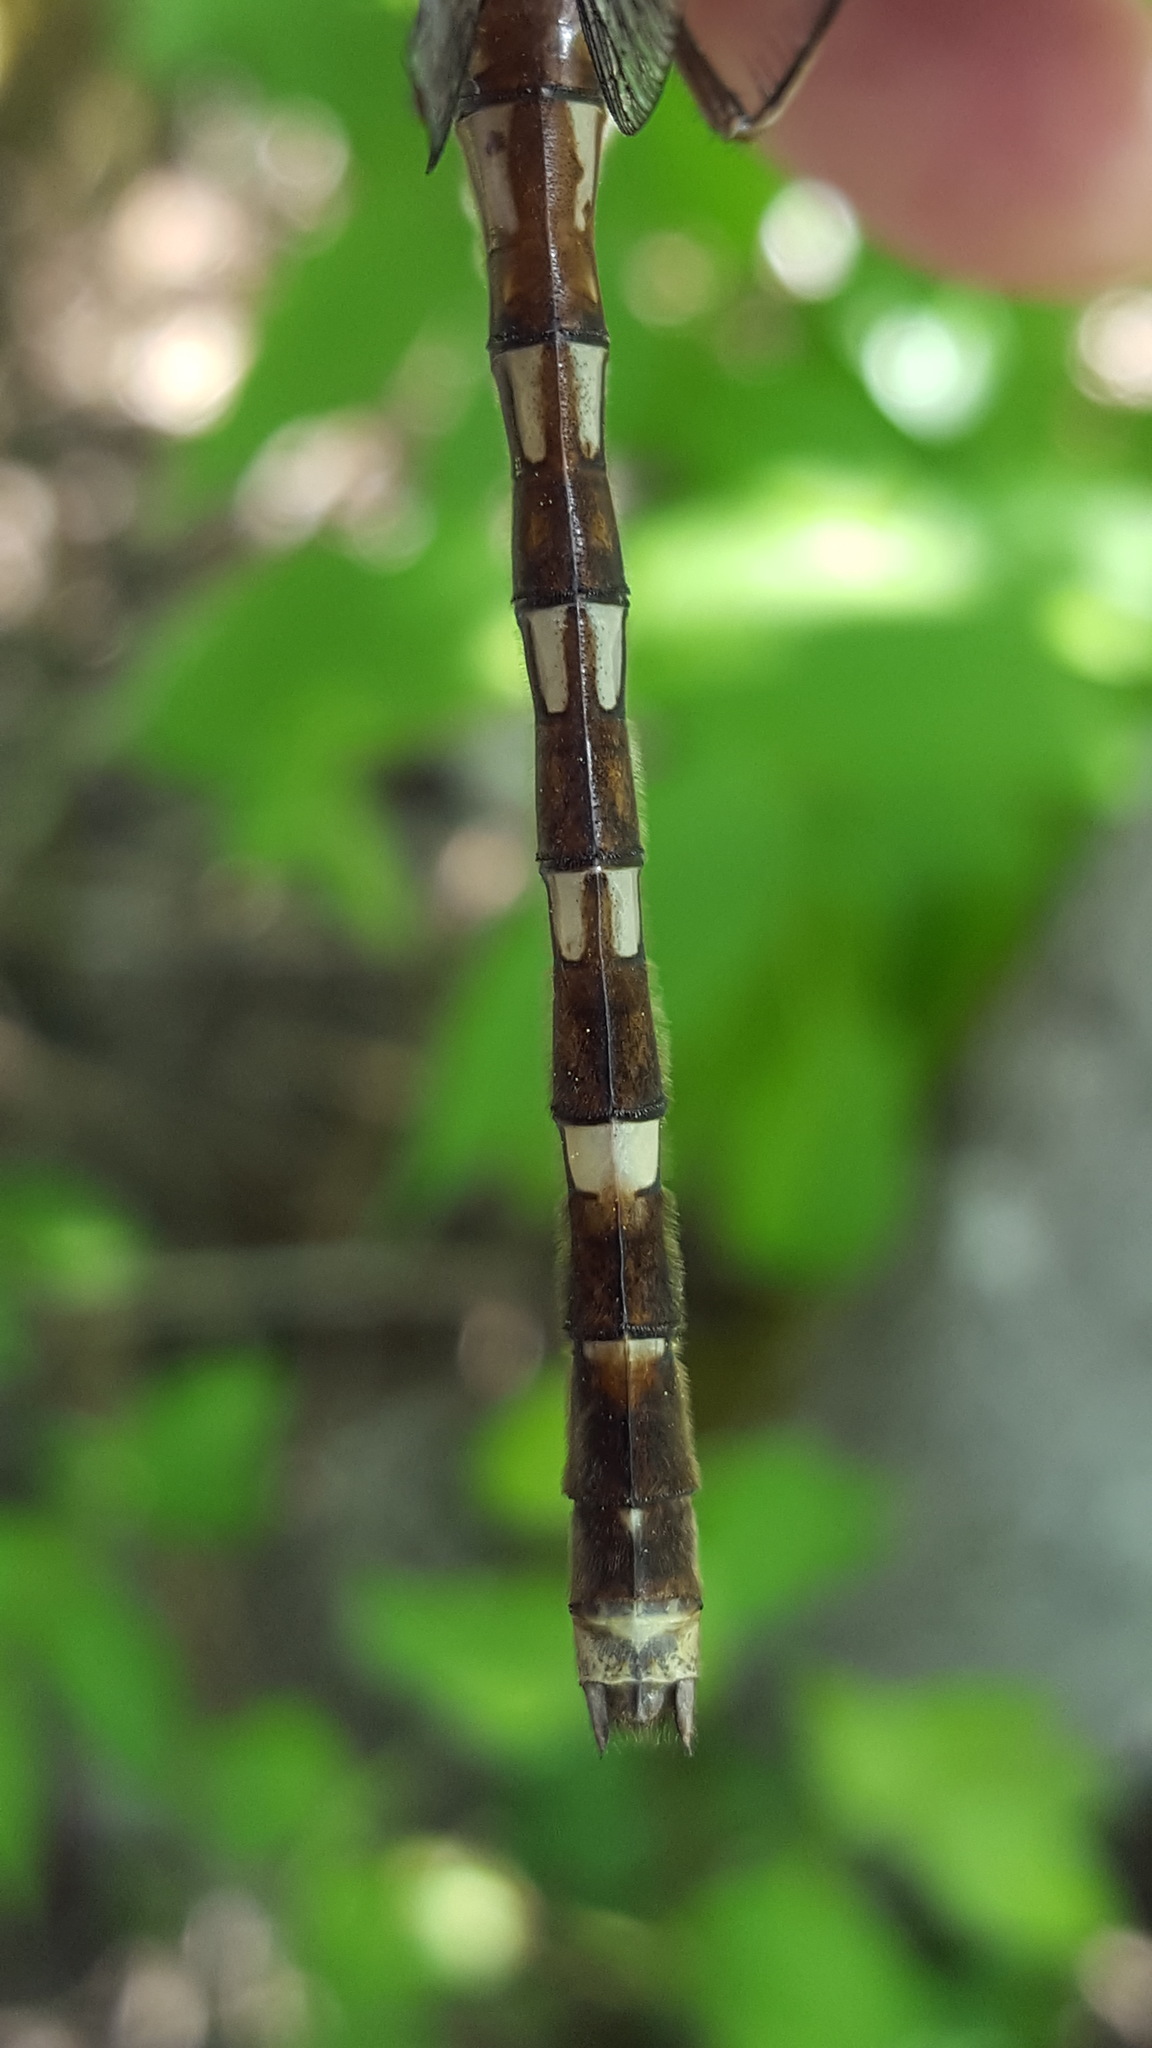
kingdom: Animalia
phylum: Arthropoda
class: Insecta
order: Odonata
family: Macromiidae
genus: Didymops
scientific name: Didymops transversa
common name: Stream cruiser
